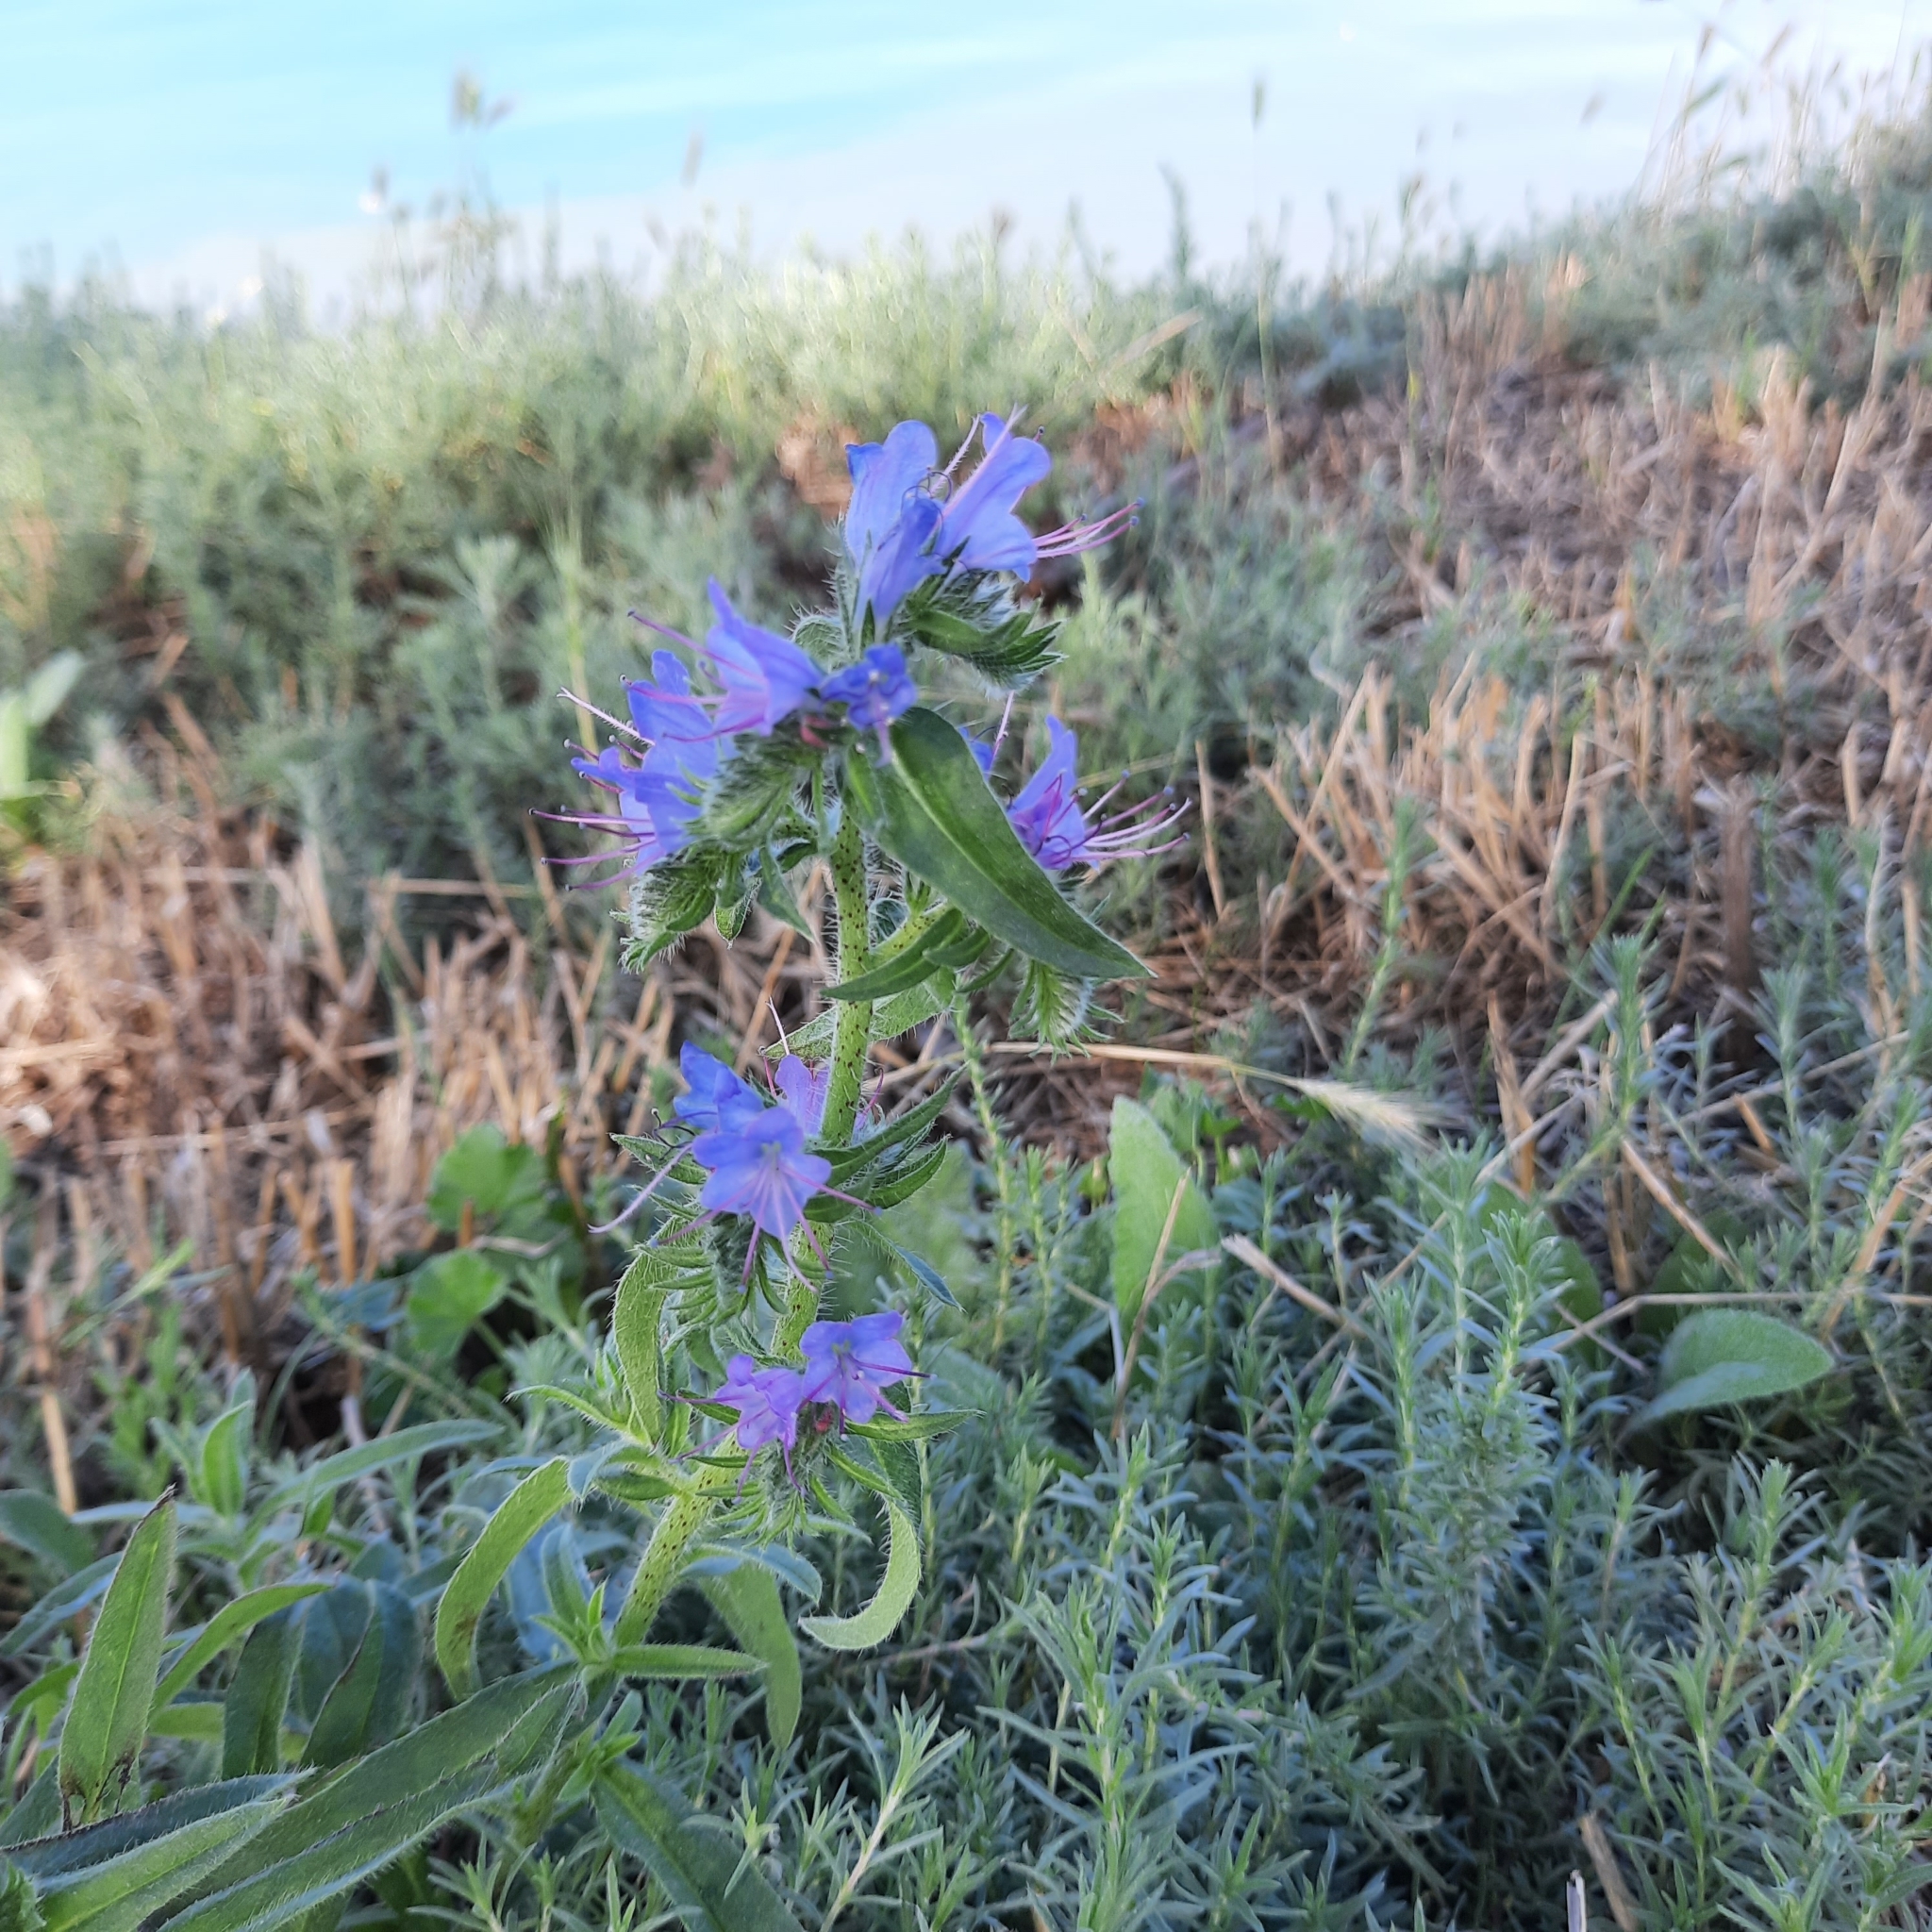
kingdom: Plantae
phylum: Tracheophyta
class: Magnoliopsida
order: Boraginales
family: Boraginaceae
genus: Echium
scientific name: Echium vulgare
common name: Common viper's bugloss
